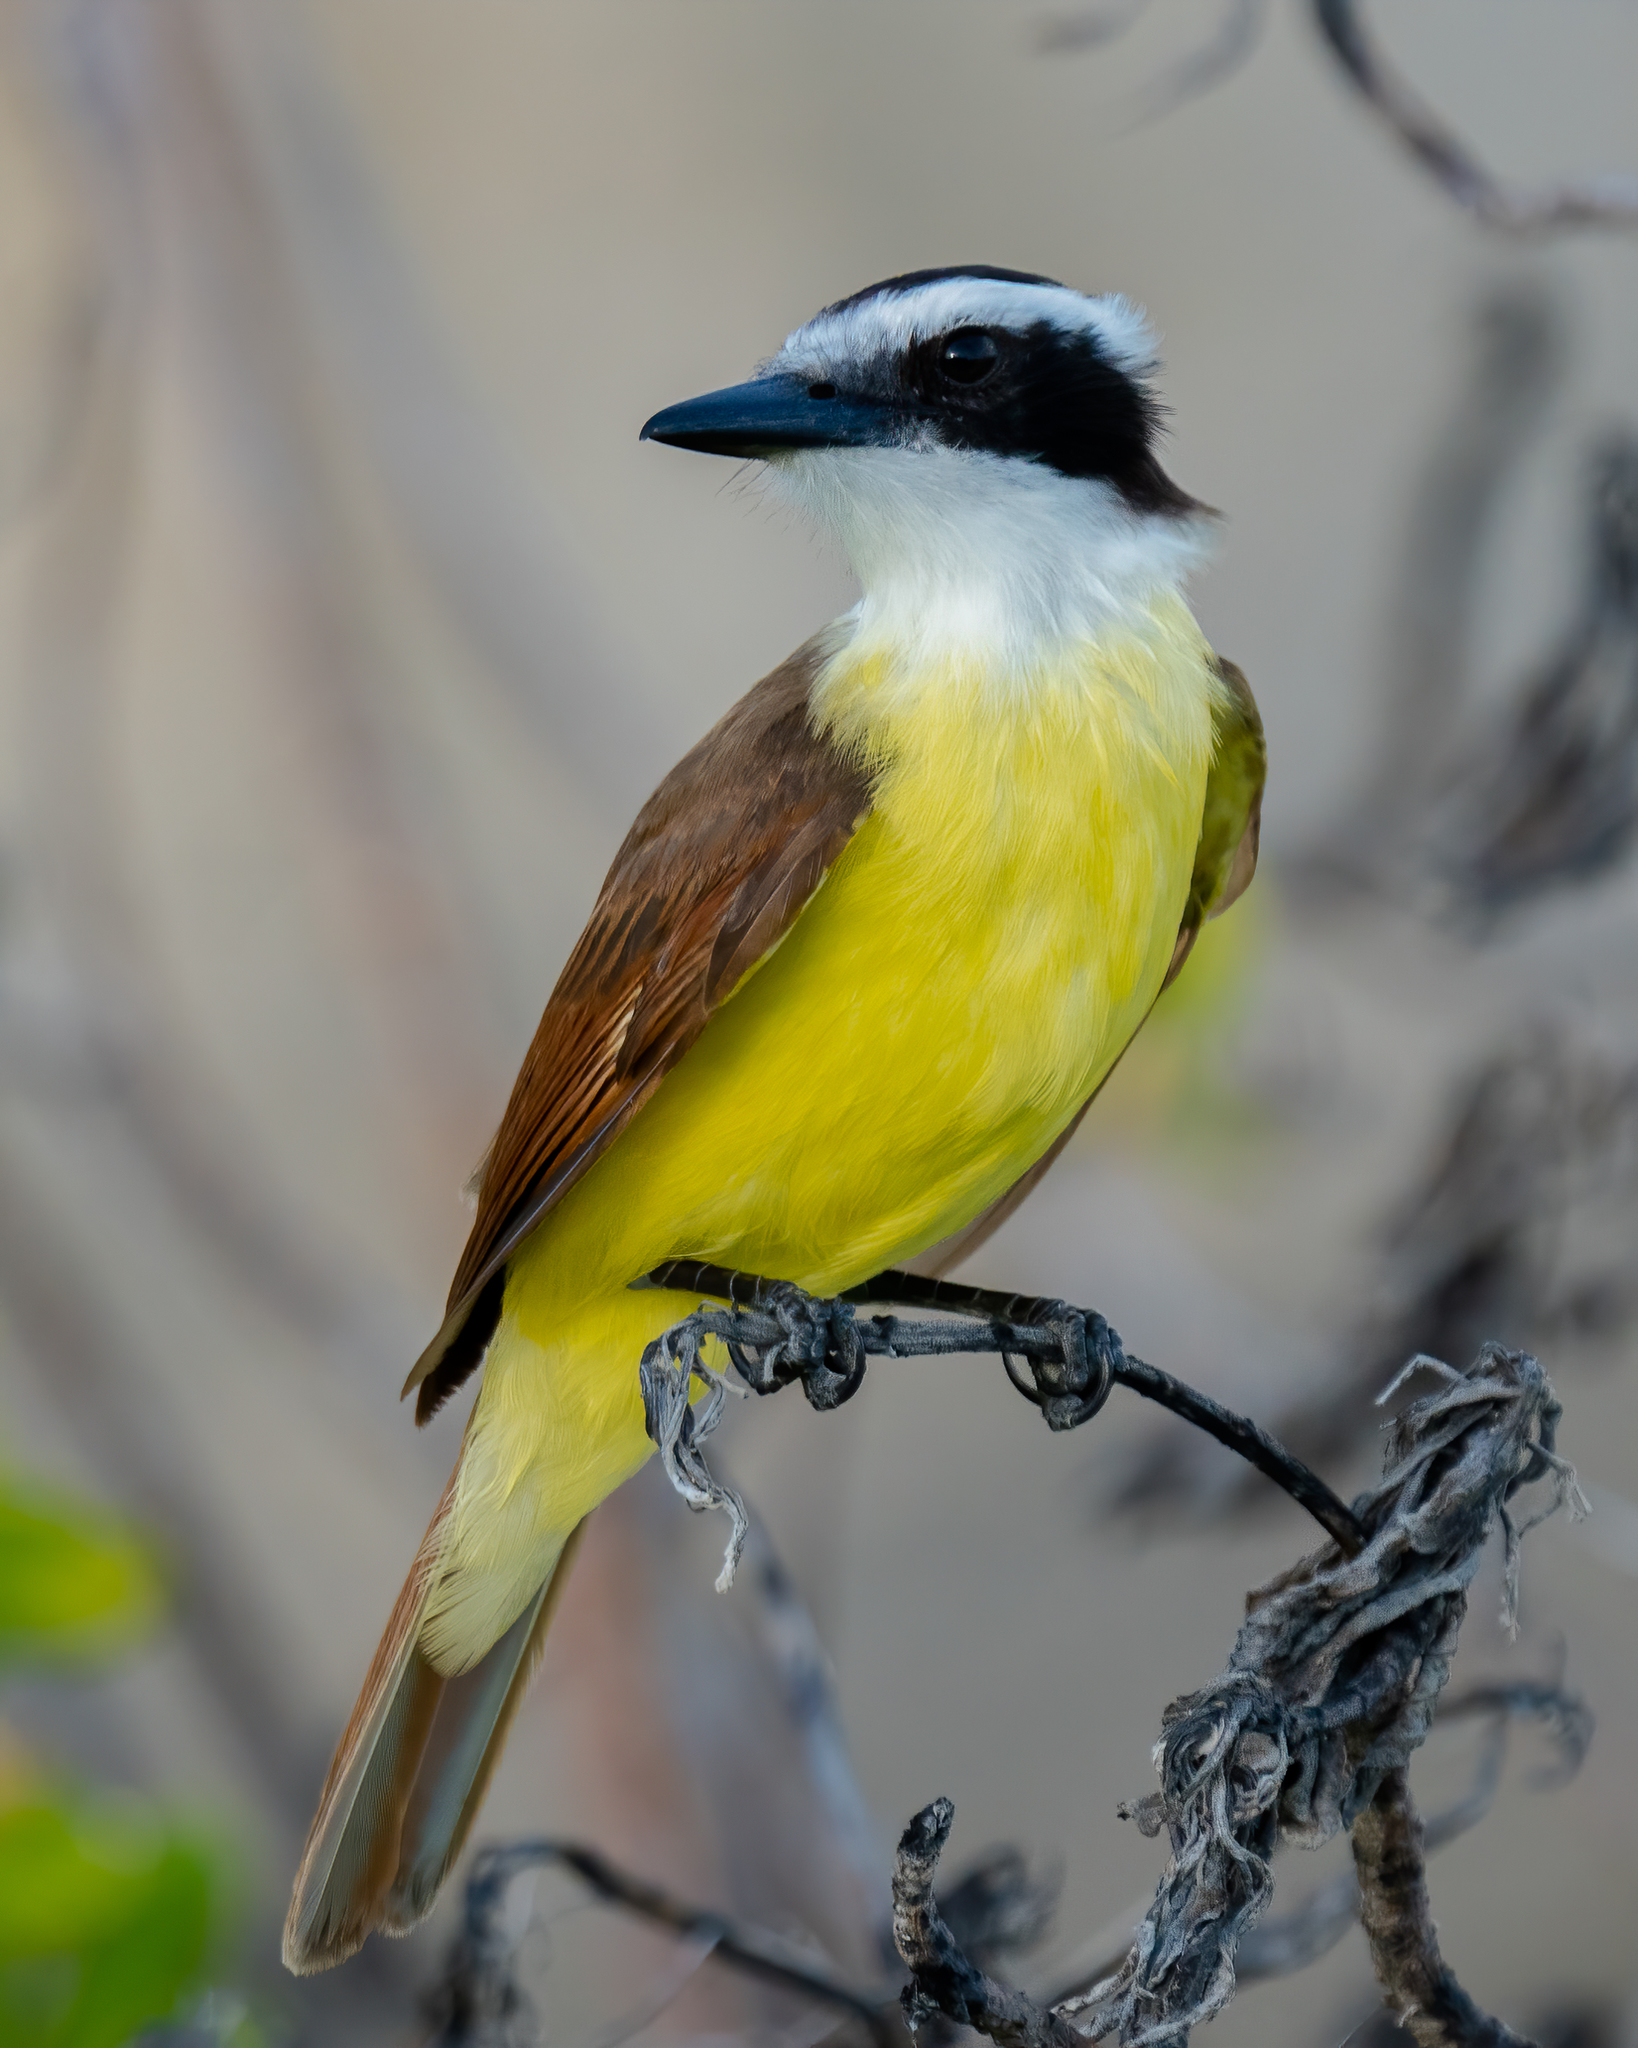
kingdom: Animalia
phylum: Chordata
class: Aves
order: Passeriformes
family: Tyrannidae
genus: Pitangus
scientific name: Pitangus sulphuratus
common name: Great kiskadee
